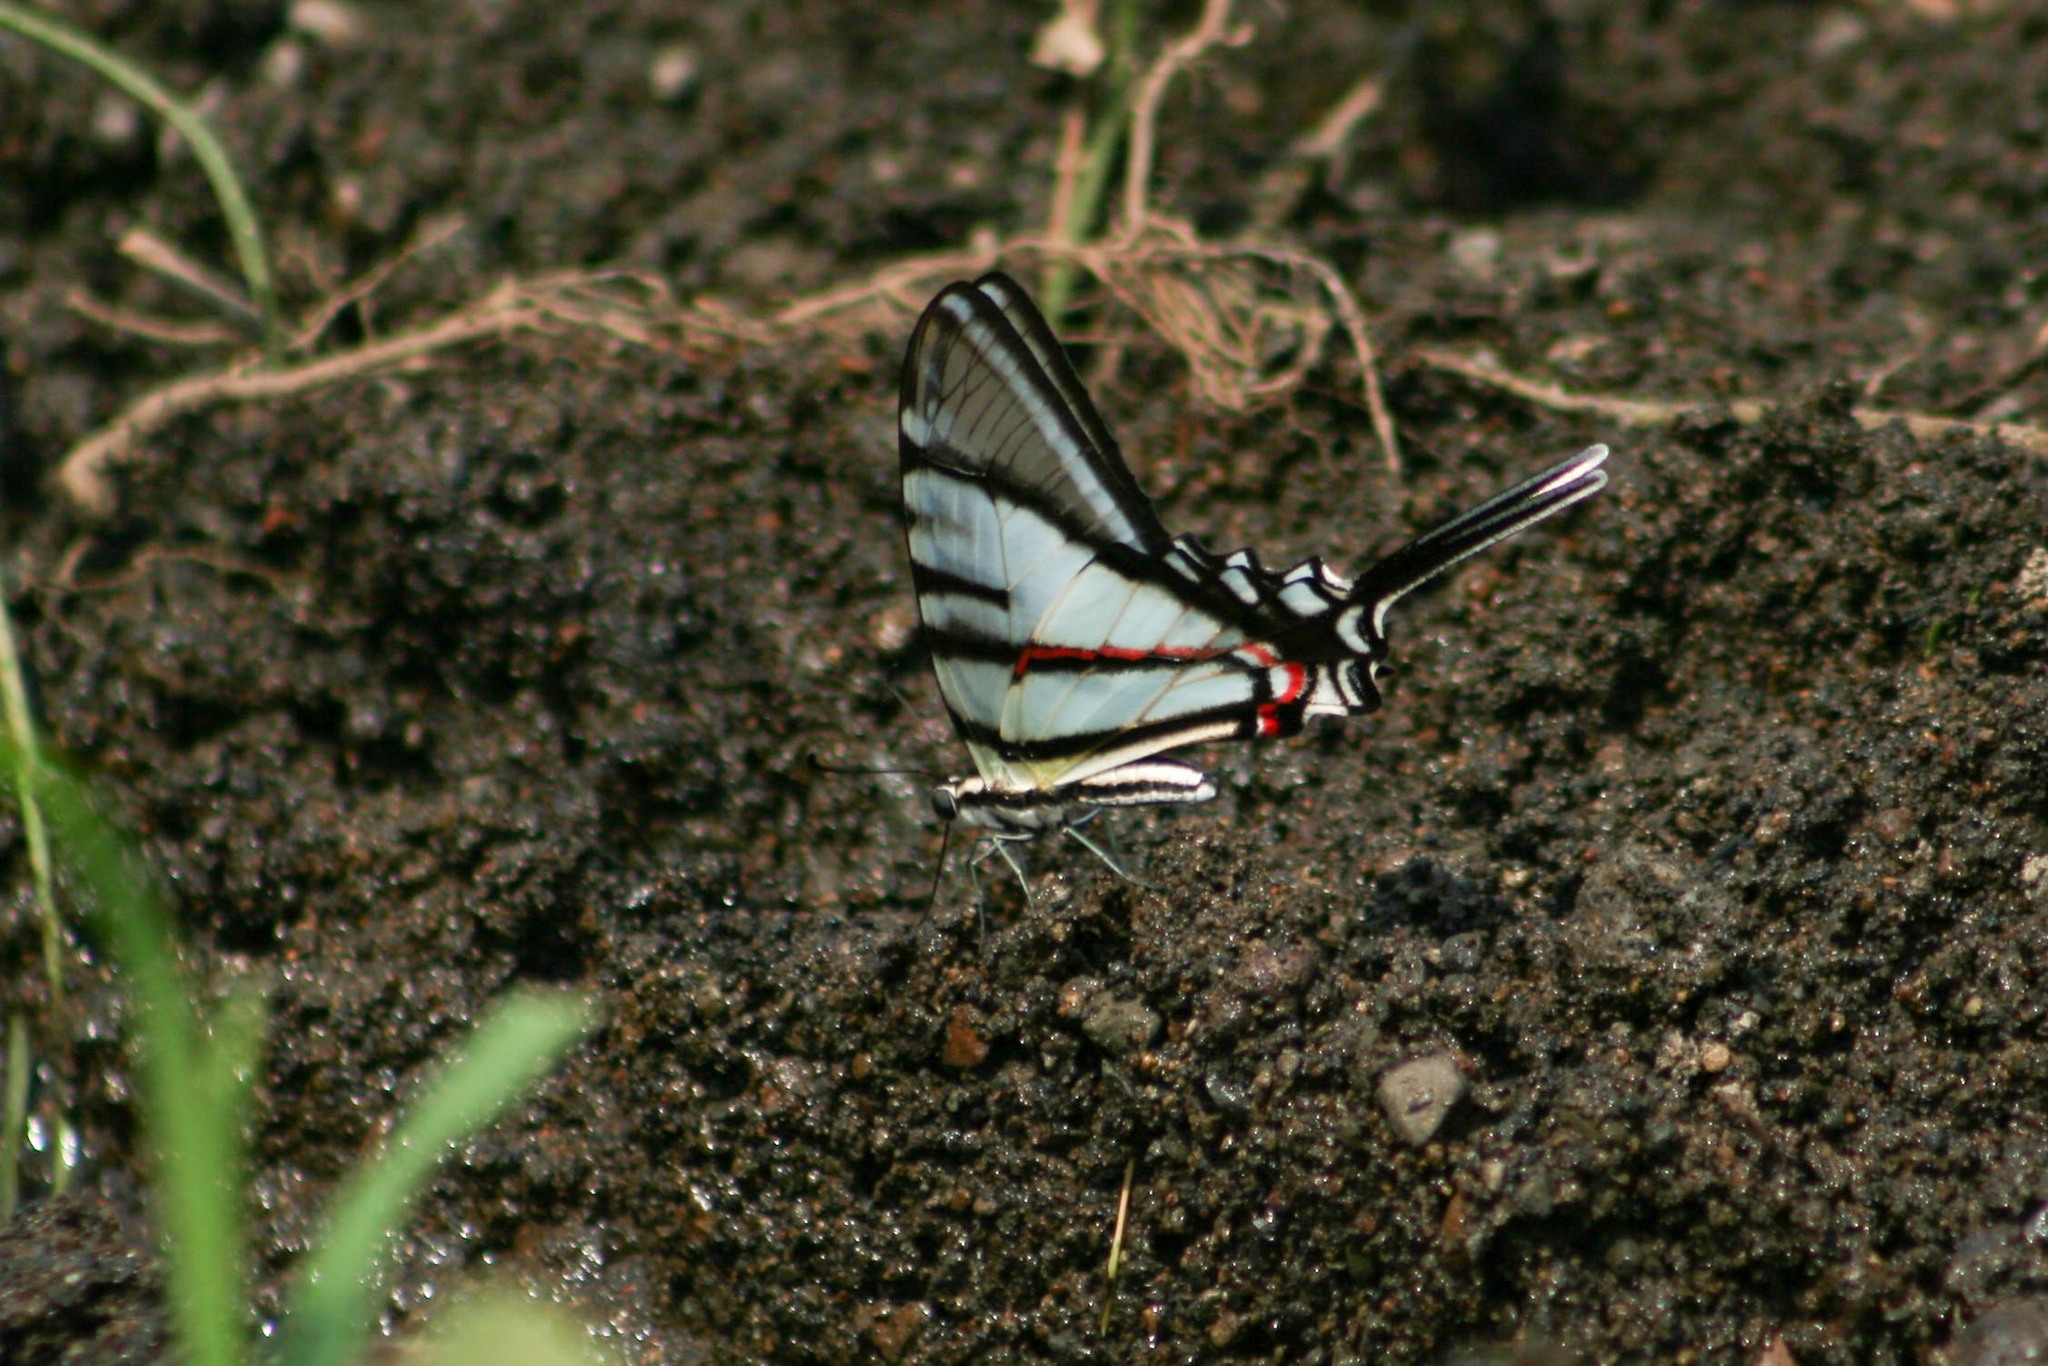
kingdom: Animalia
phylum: Arthropoda
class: Insecta
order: Lepidoptera
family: Papilionidae
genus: Protographium
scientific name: Protographium epidaus
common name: Mexican kite swallowtail
